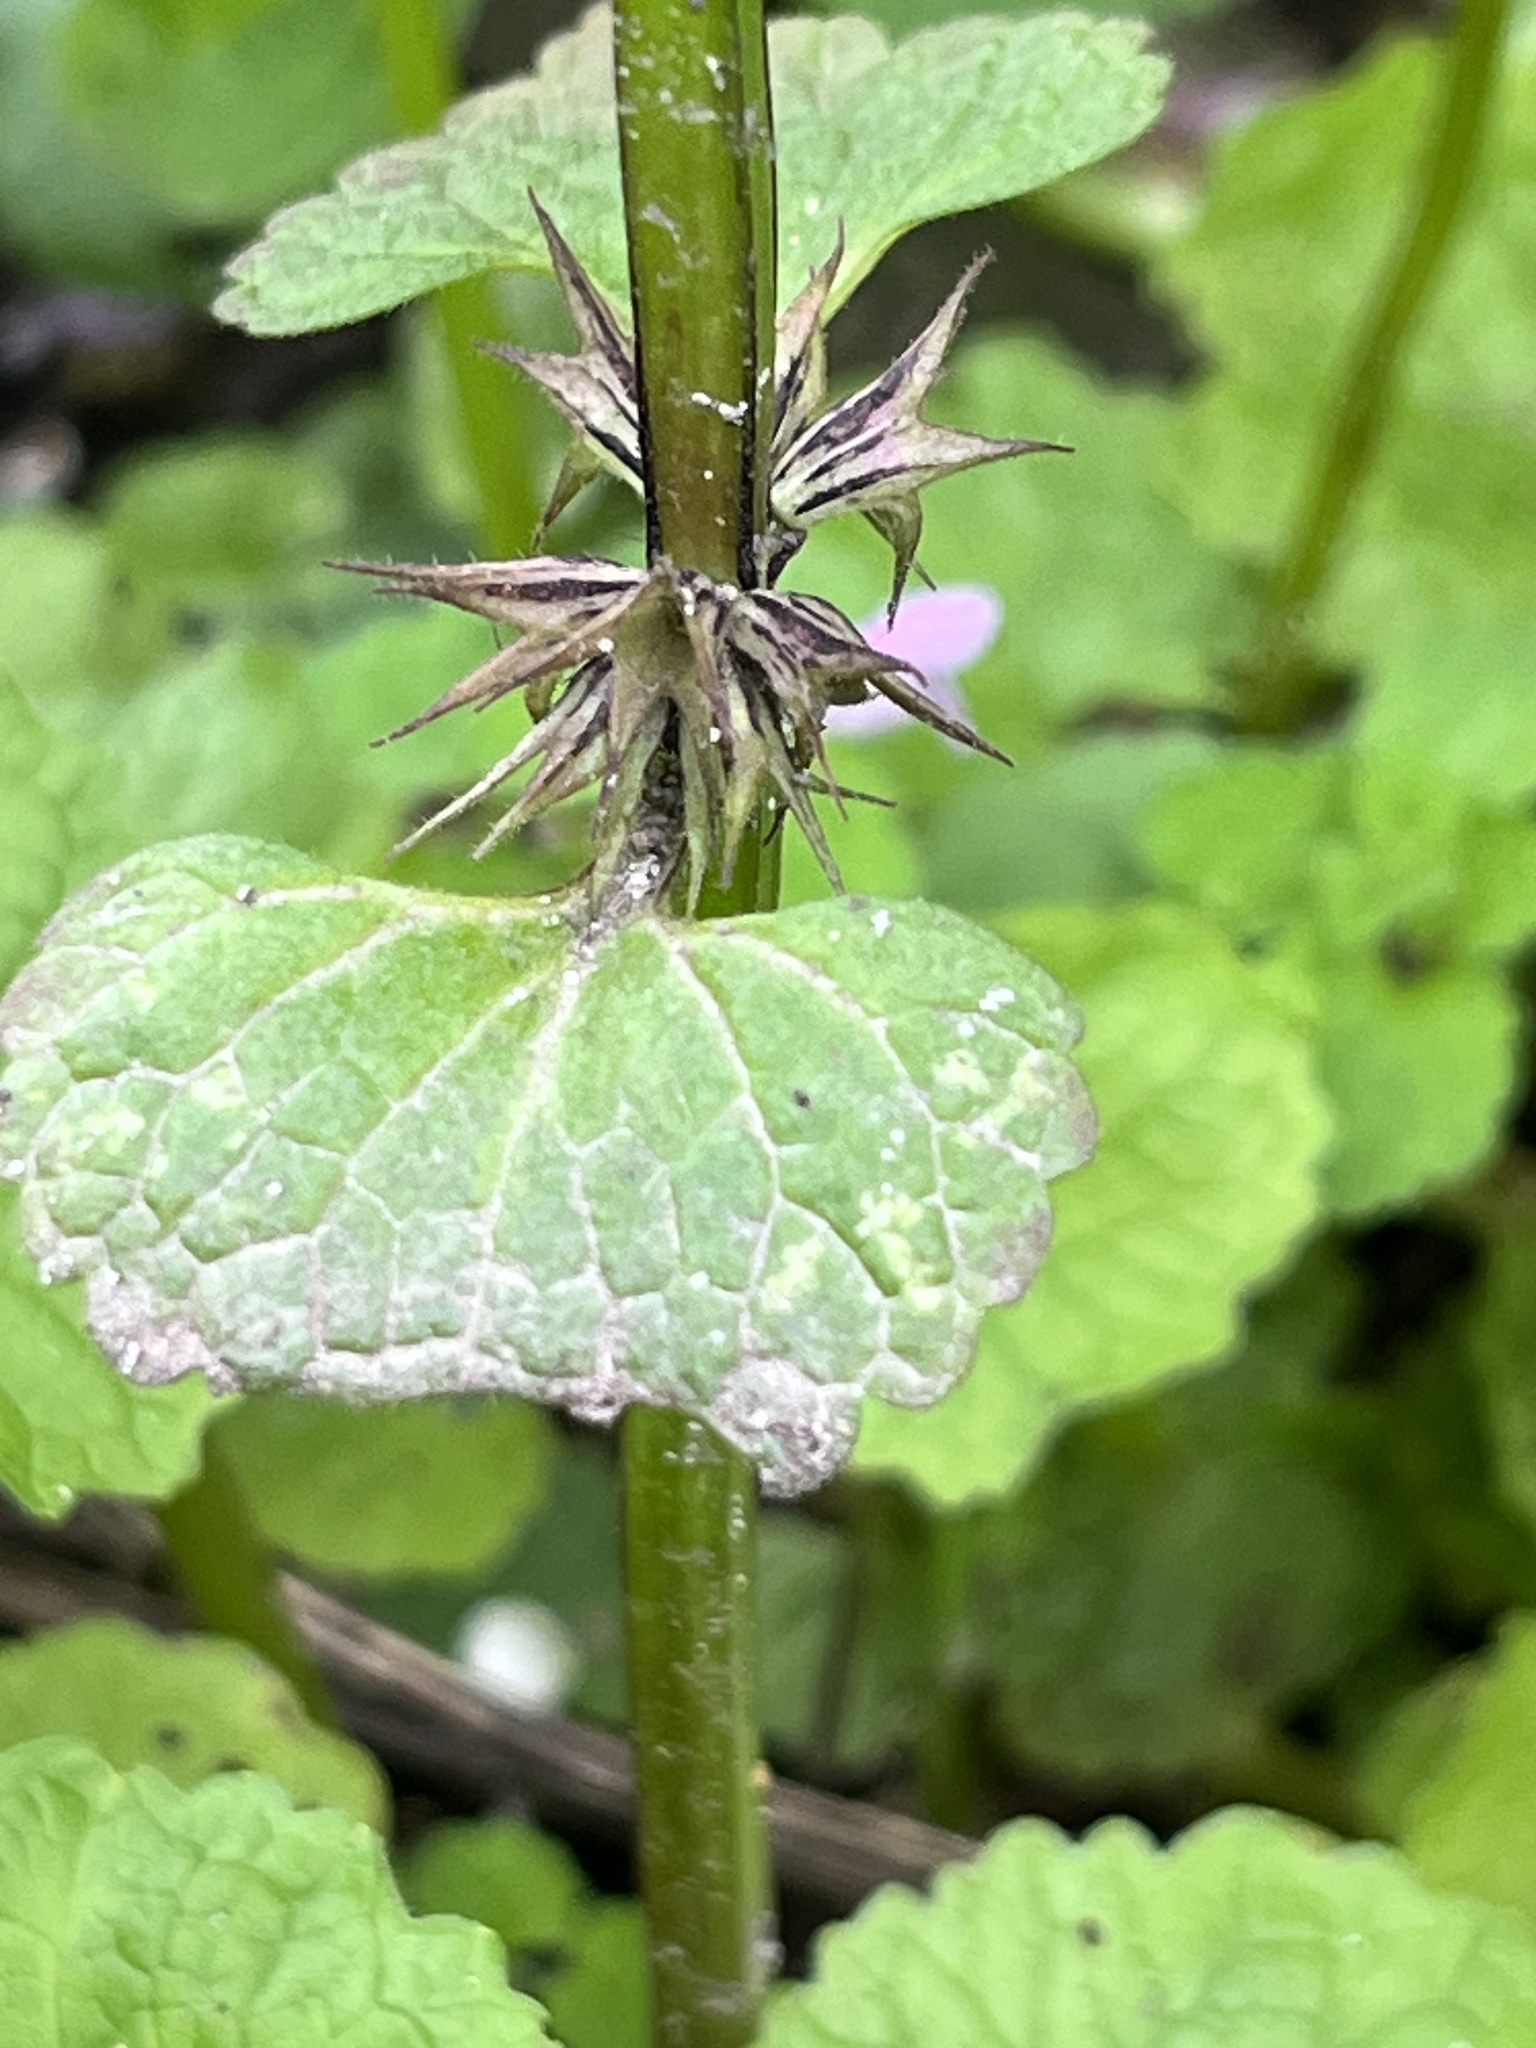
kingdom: Plantae
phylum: Tracheophyta
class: Magnoliopsida
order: Lamiales
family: Lamiaceae
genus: Lamium
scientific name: Lamium purpureum
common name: Red dead-nettle
